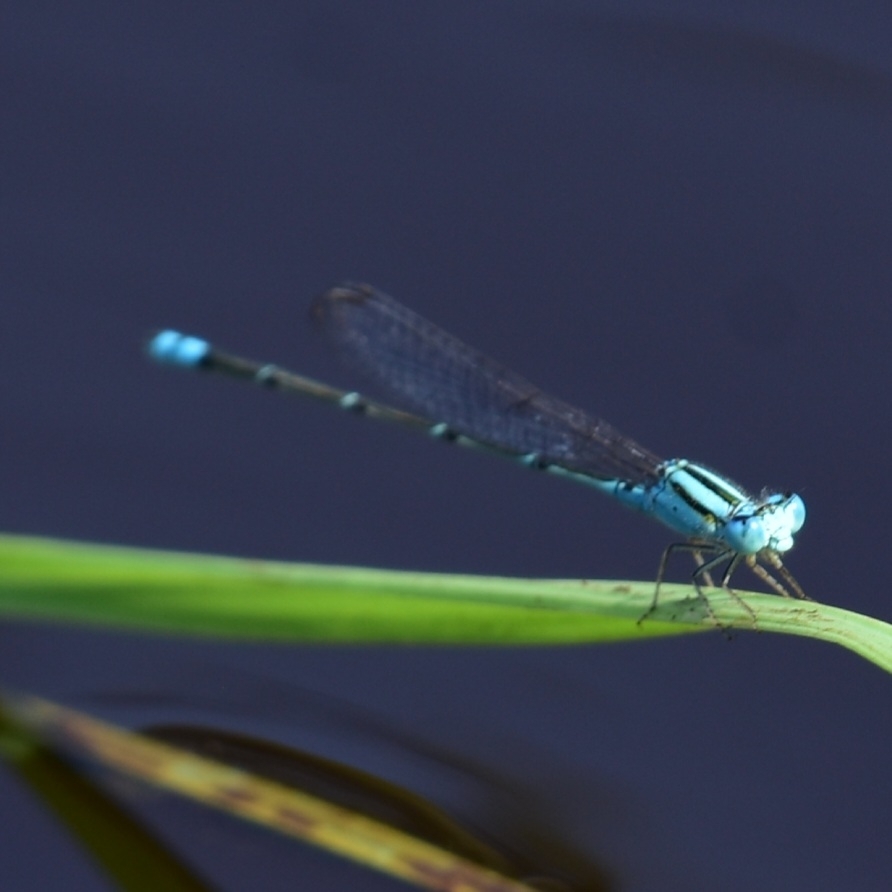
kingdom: Animalia
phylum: Arthropoda
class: Insecta
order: Odonata
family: Coenagrionidae
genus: Pseudagrion
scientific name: Pseudagrion microcephalum
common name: Blue riverdamsel
